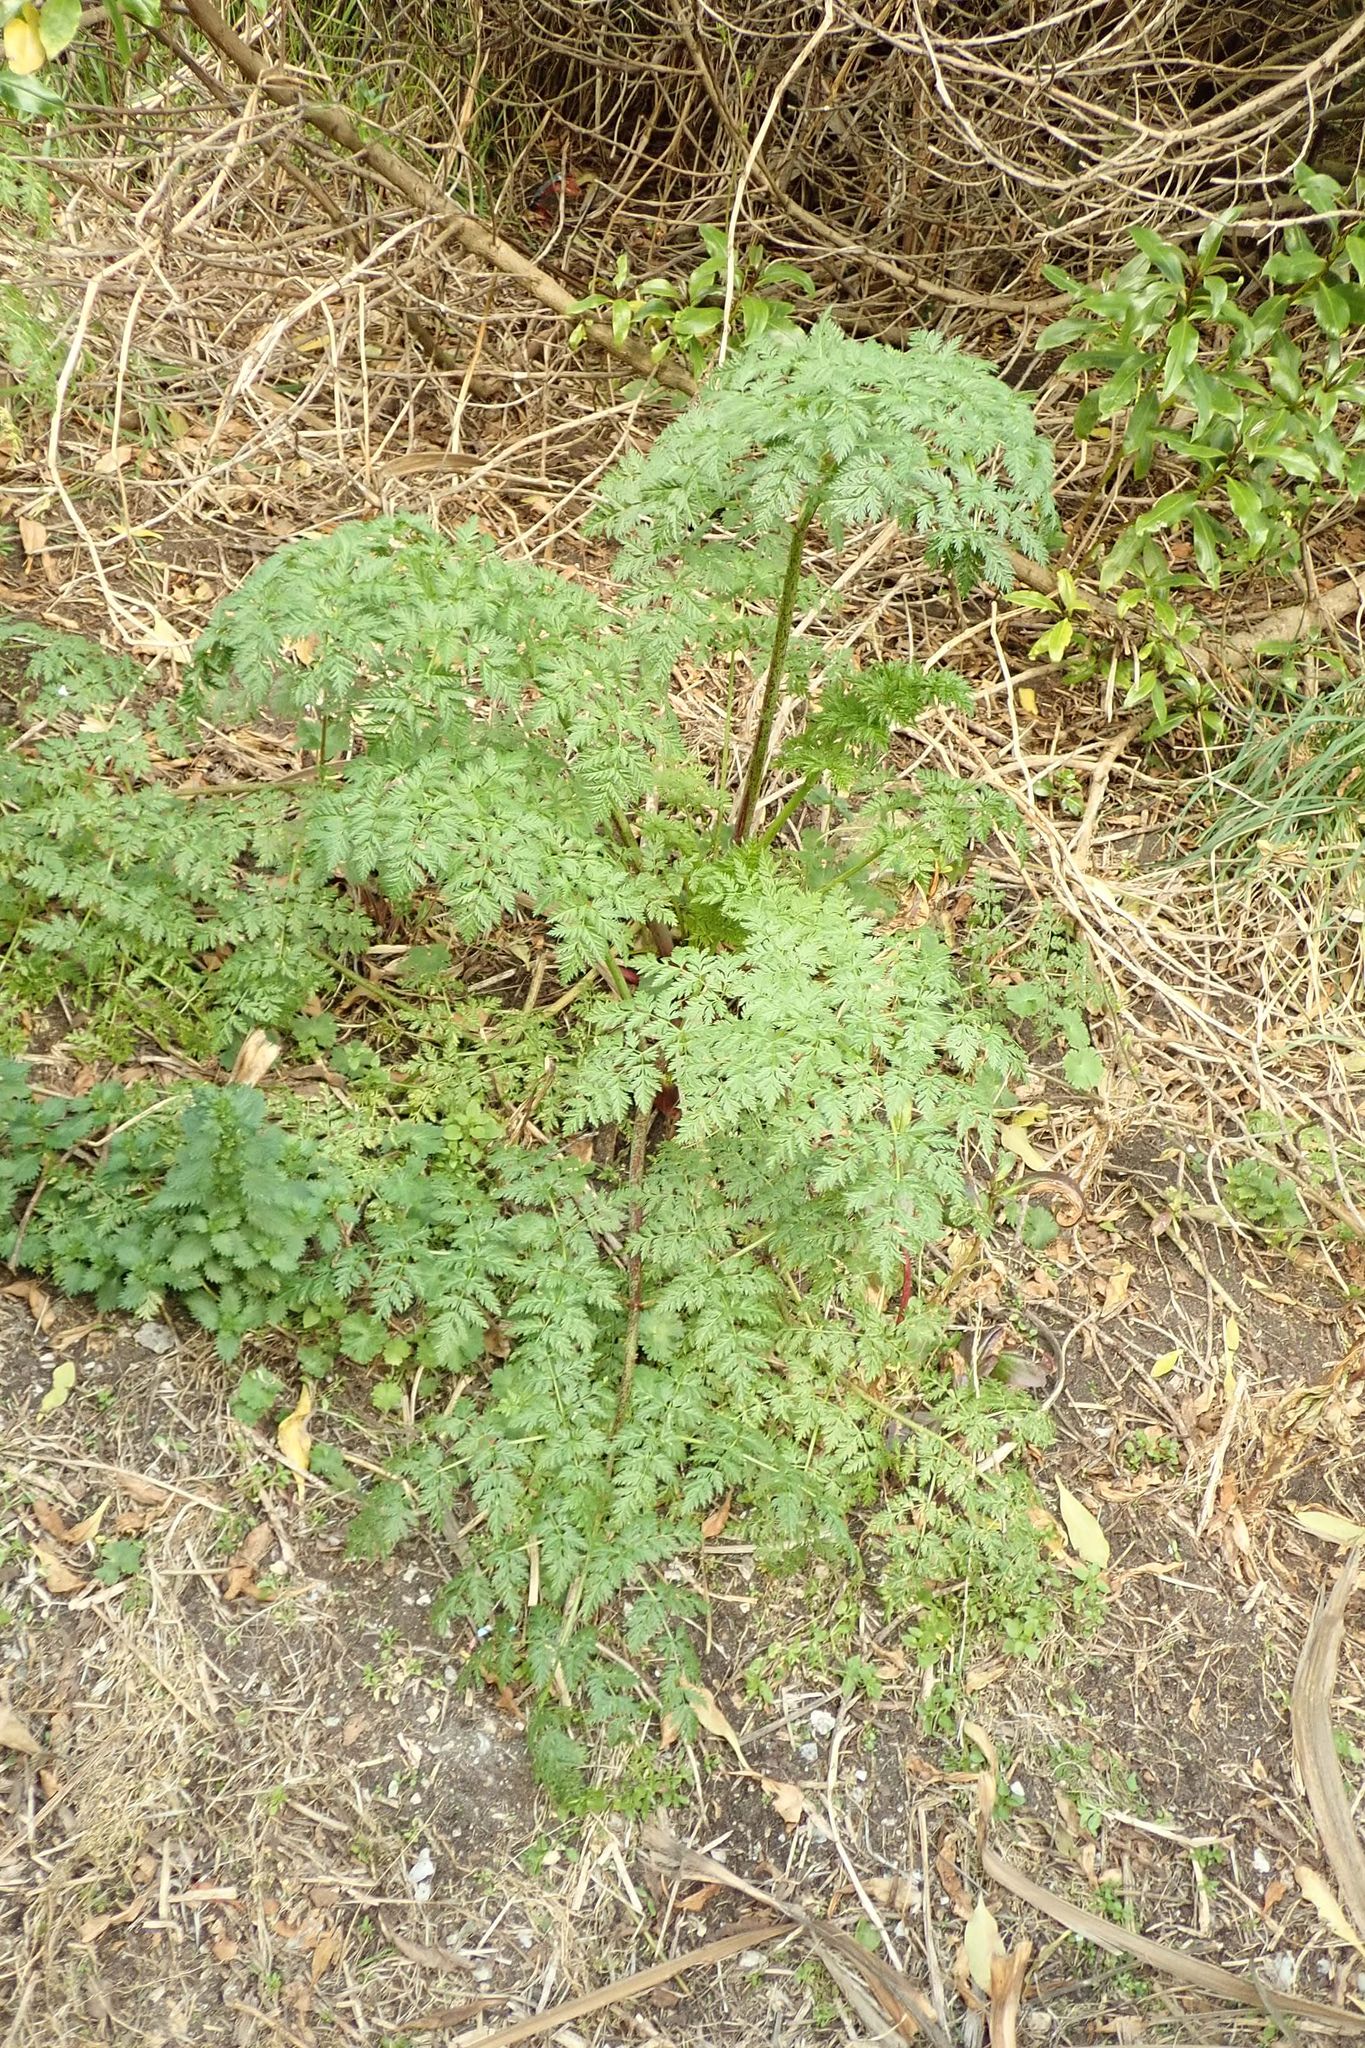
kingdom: Plantae
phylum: Tracheophyta
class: Magnoliopsida
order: Apiales
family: Apiaceae
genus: Conium
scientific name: Conium maculatum
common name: Hemlock
